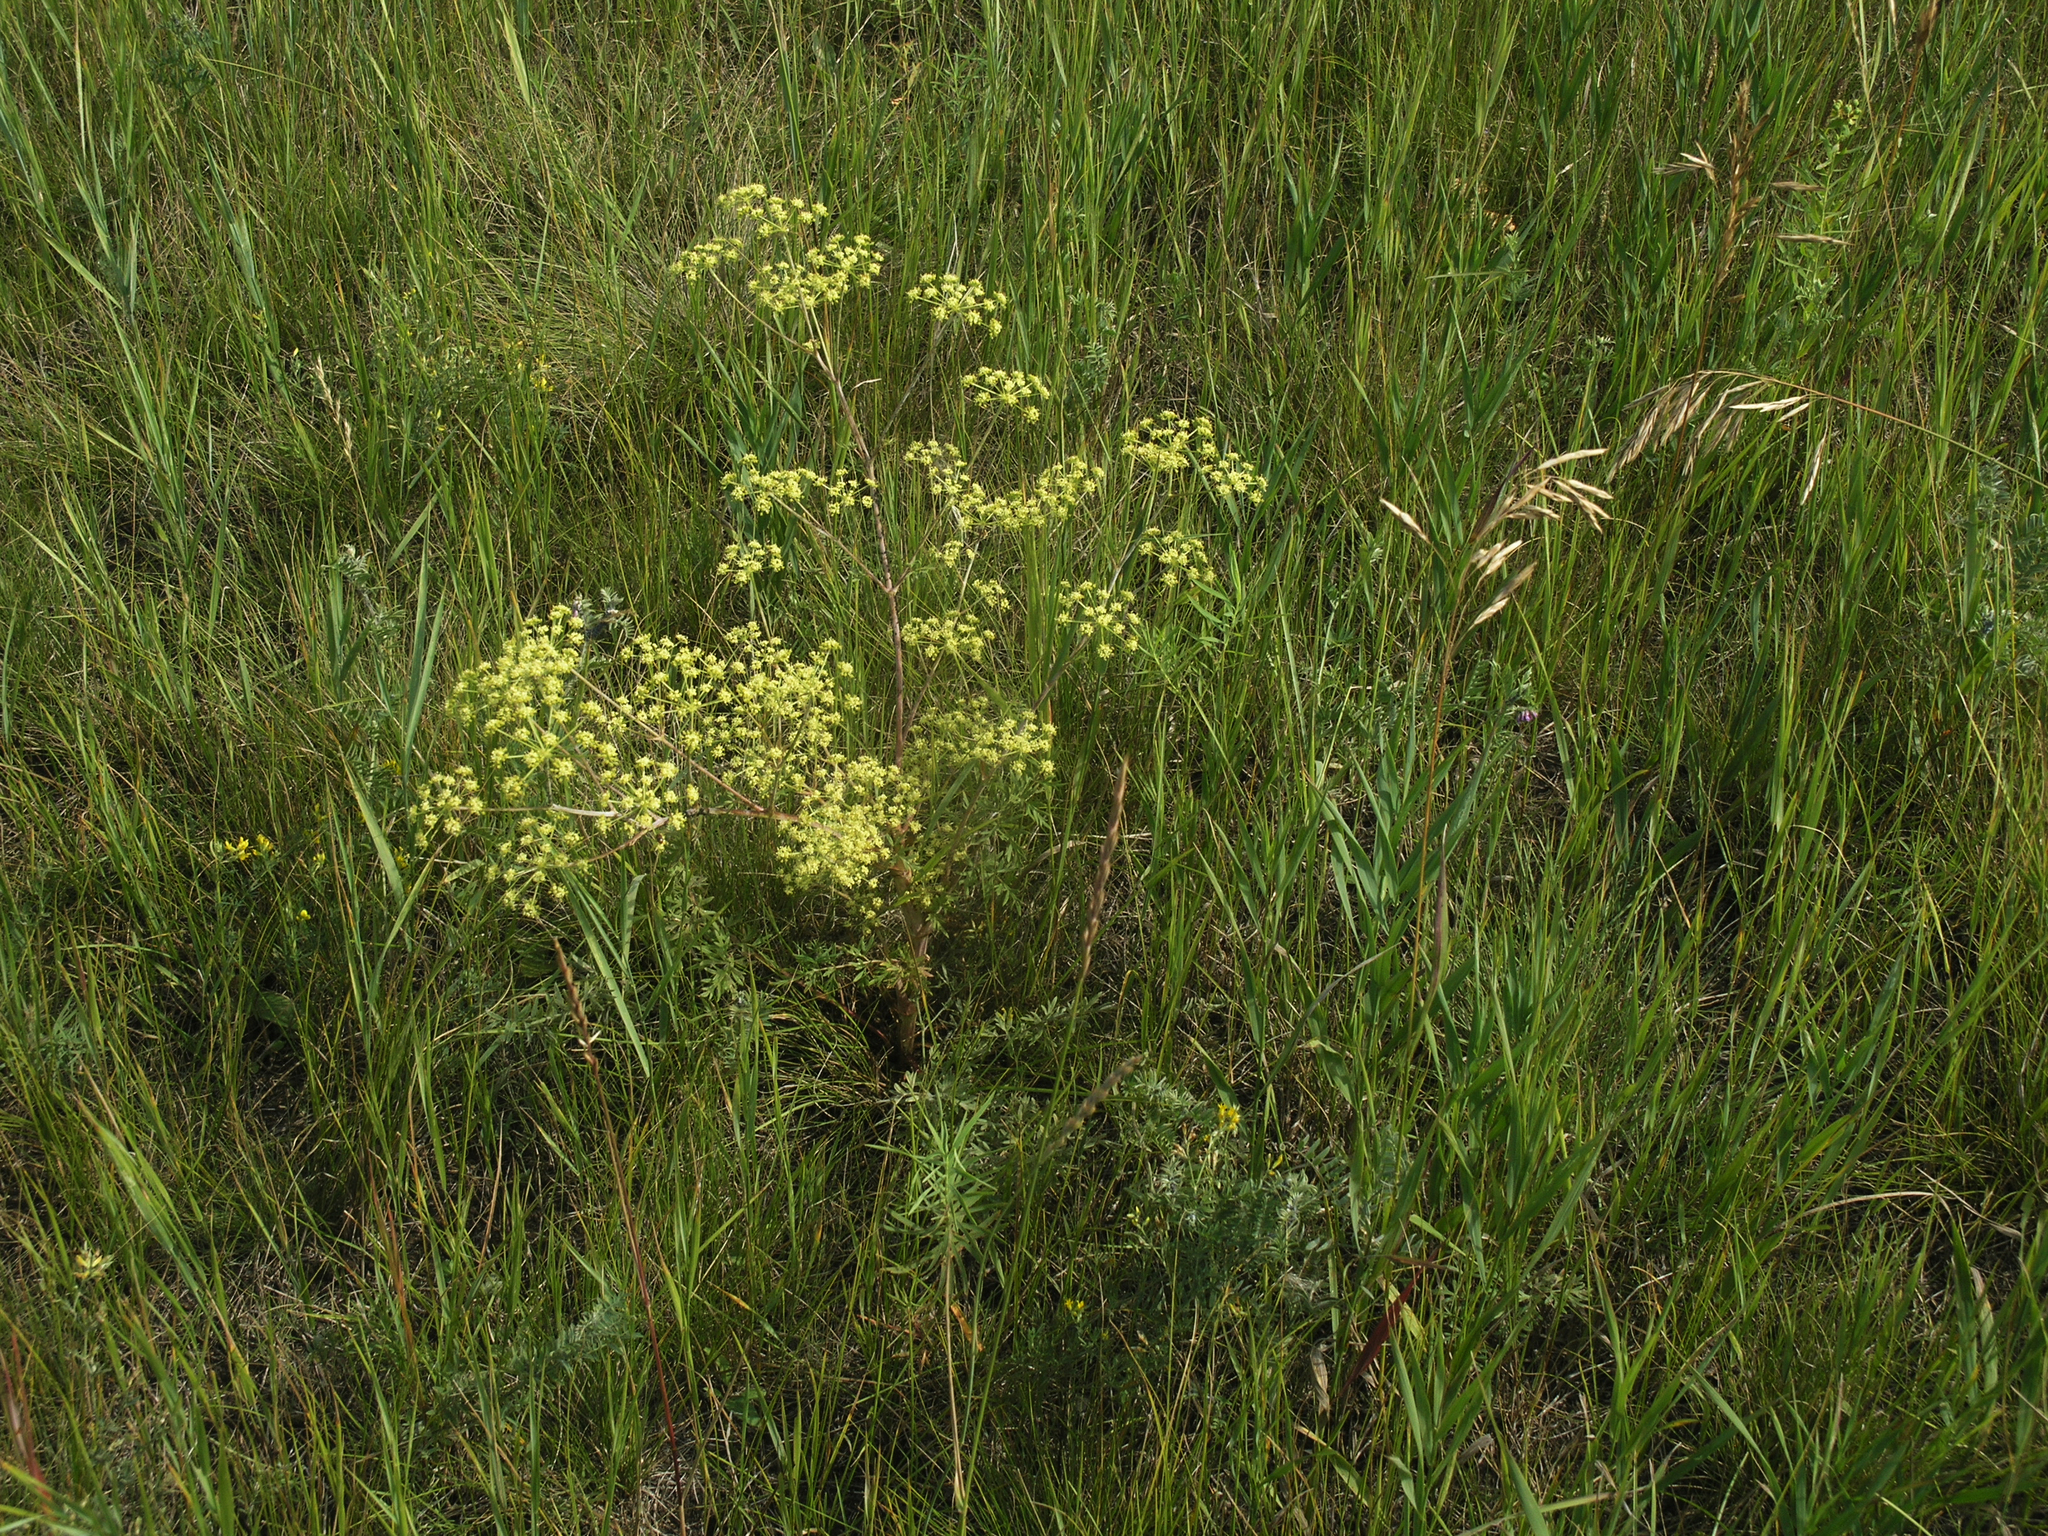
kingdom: Plantae
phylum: Tracheophyta
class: Magnoliopsida
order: Apiales
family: Apiaceae
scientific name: Apiaceae
